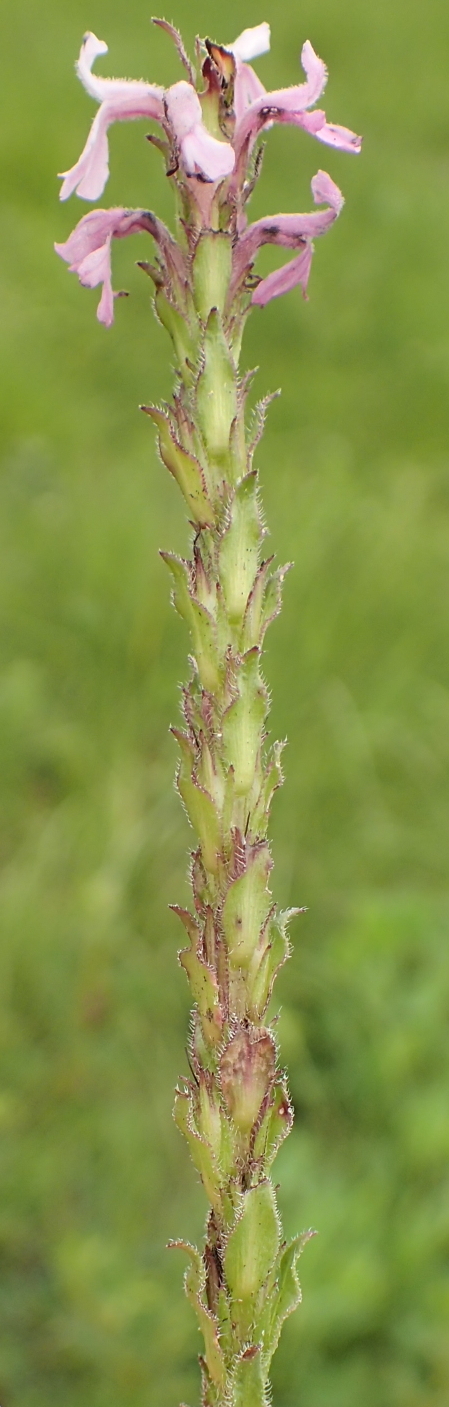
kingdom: Plantae
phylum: Tracheophyta
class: Magnoliopsida
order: Lamiales
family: Orobanchaceae
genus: Striga
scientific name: Striga bilabiata
